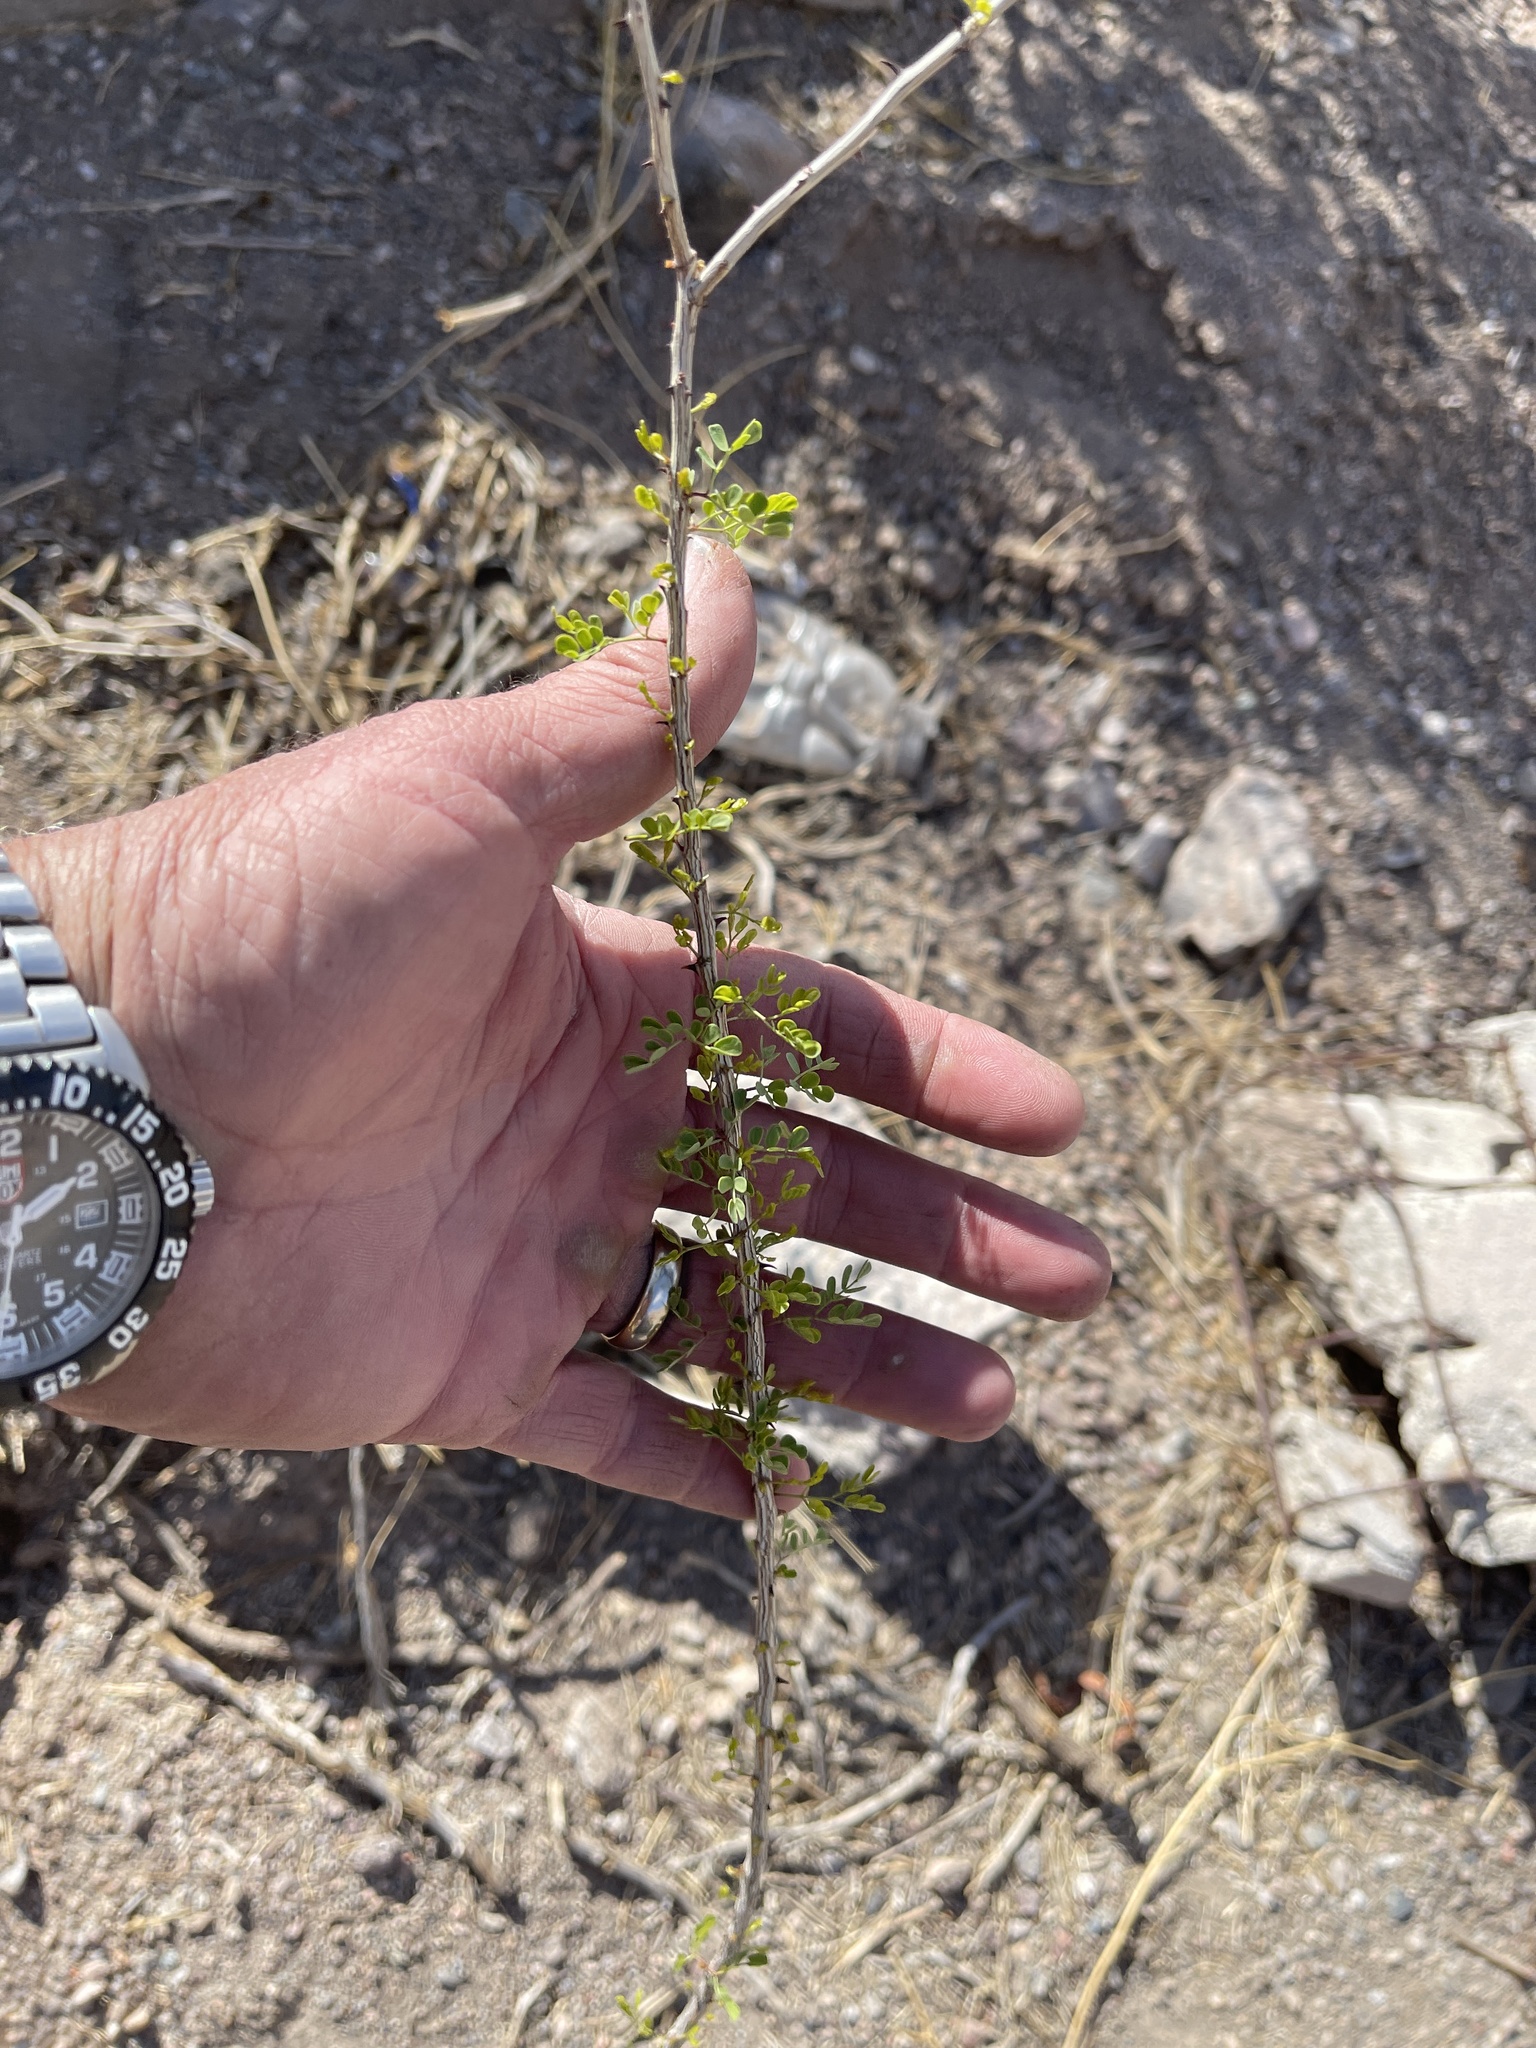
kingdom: Plantae
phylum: Tracheophyta
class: Magnoliopsida
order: Fabales
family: Fabaceae
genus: Senegalia
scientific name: Senegalia greggii
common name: Texas-mimosa
